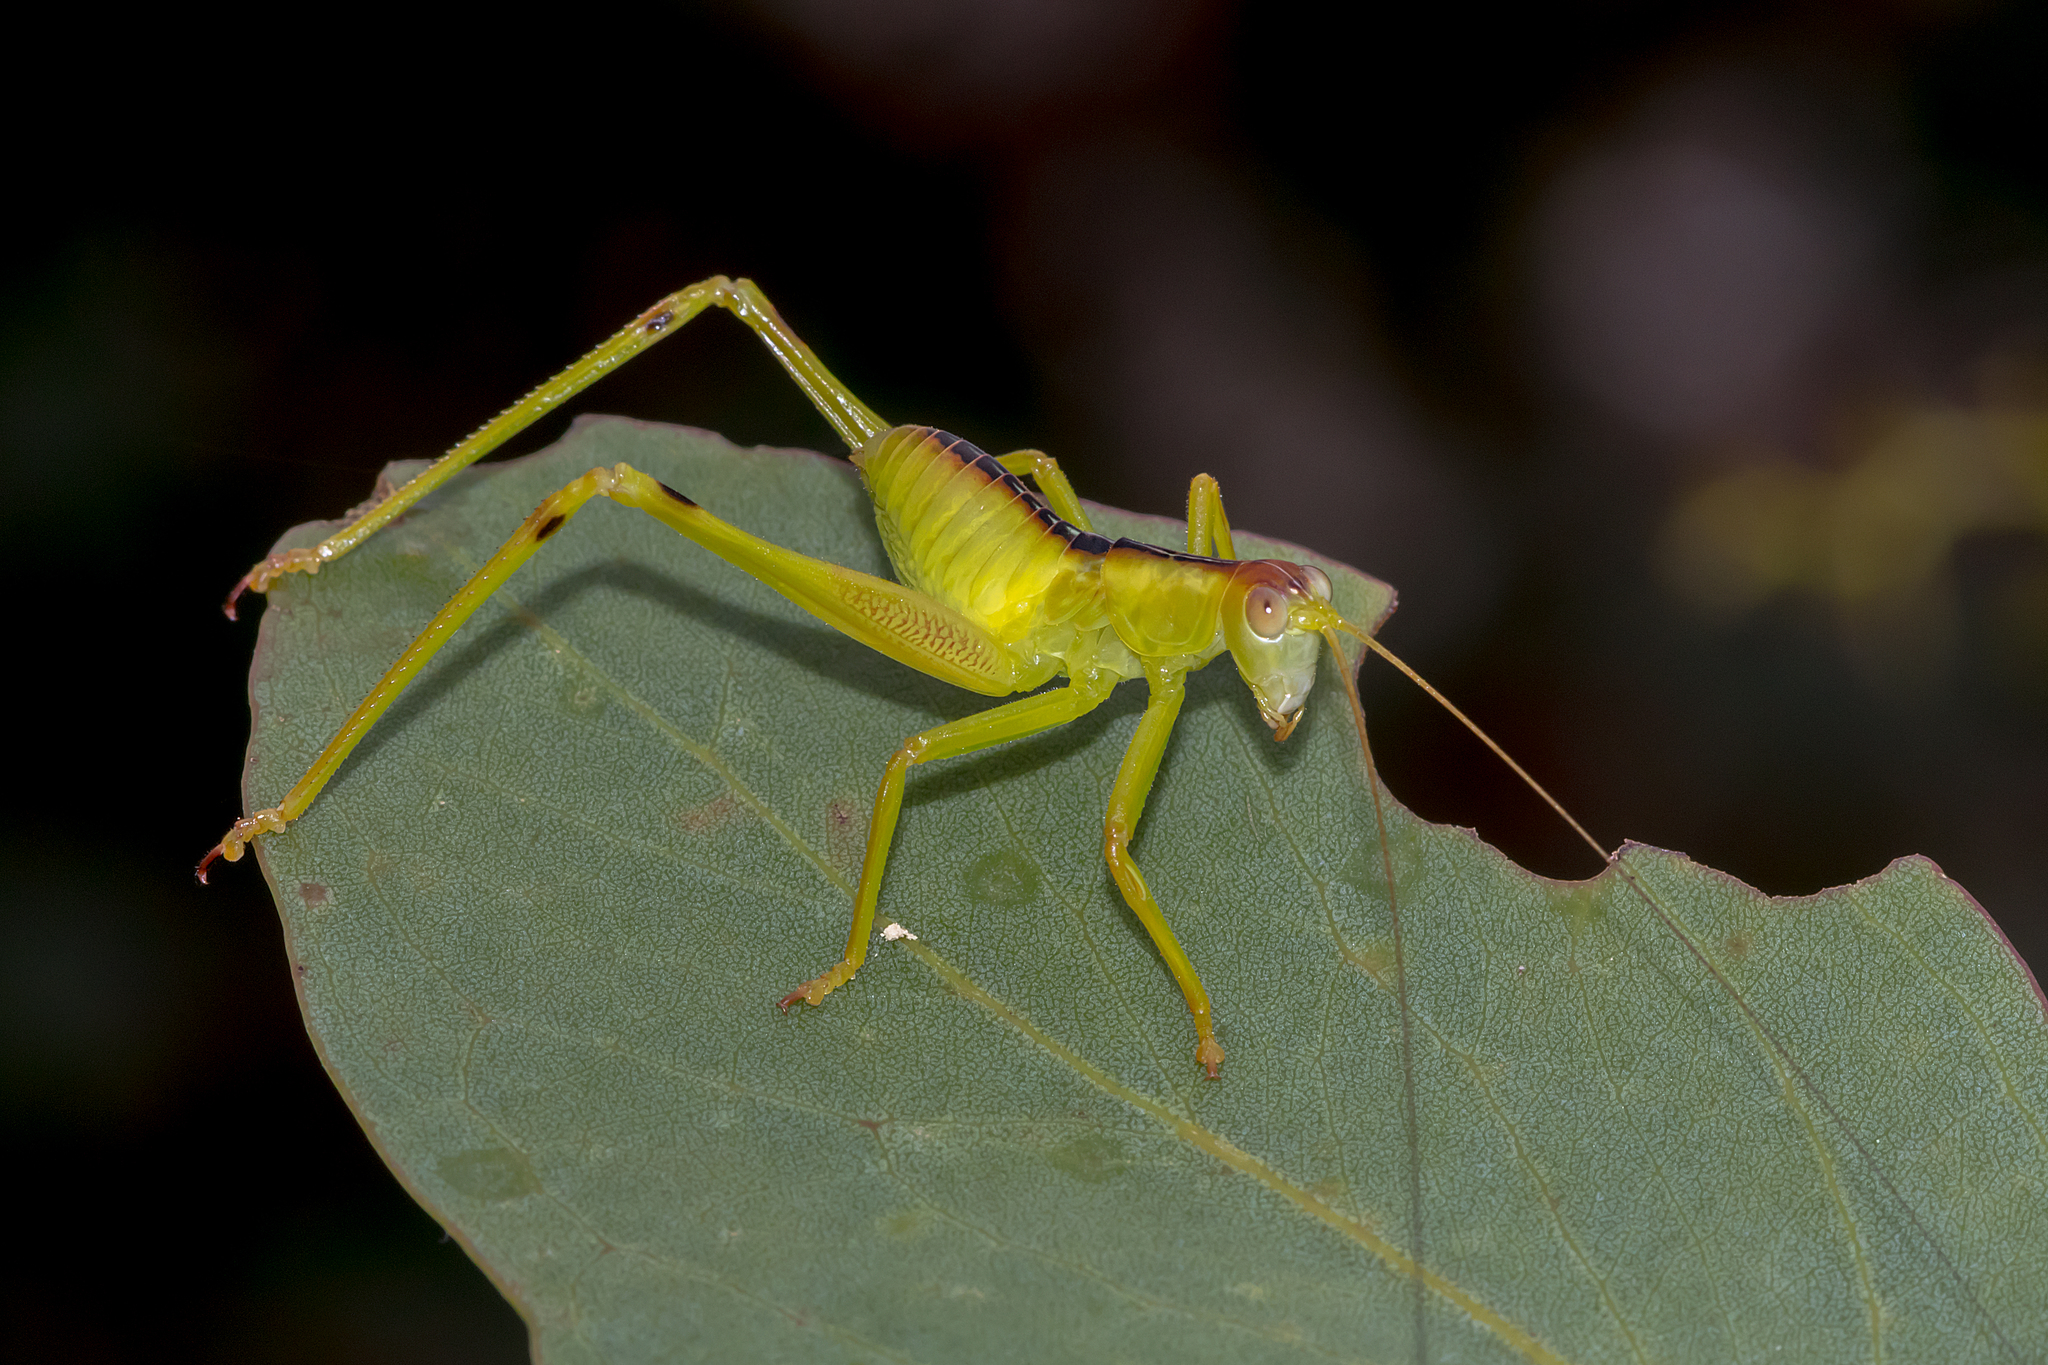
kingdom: Animalia
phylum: Arthropoda
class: Insecta
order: Orthoptera
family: Tettigoniidae
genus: Torbia
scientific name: Torbia perficita
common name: Giant torbia
